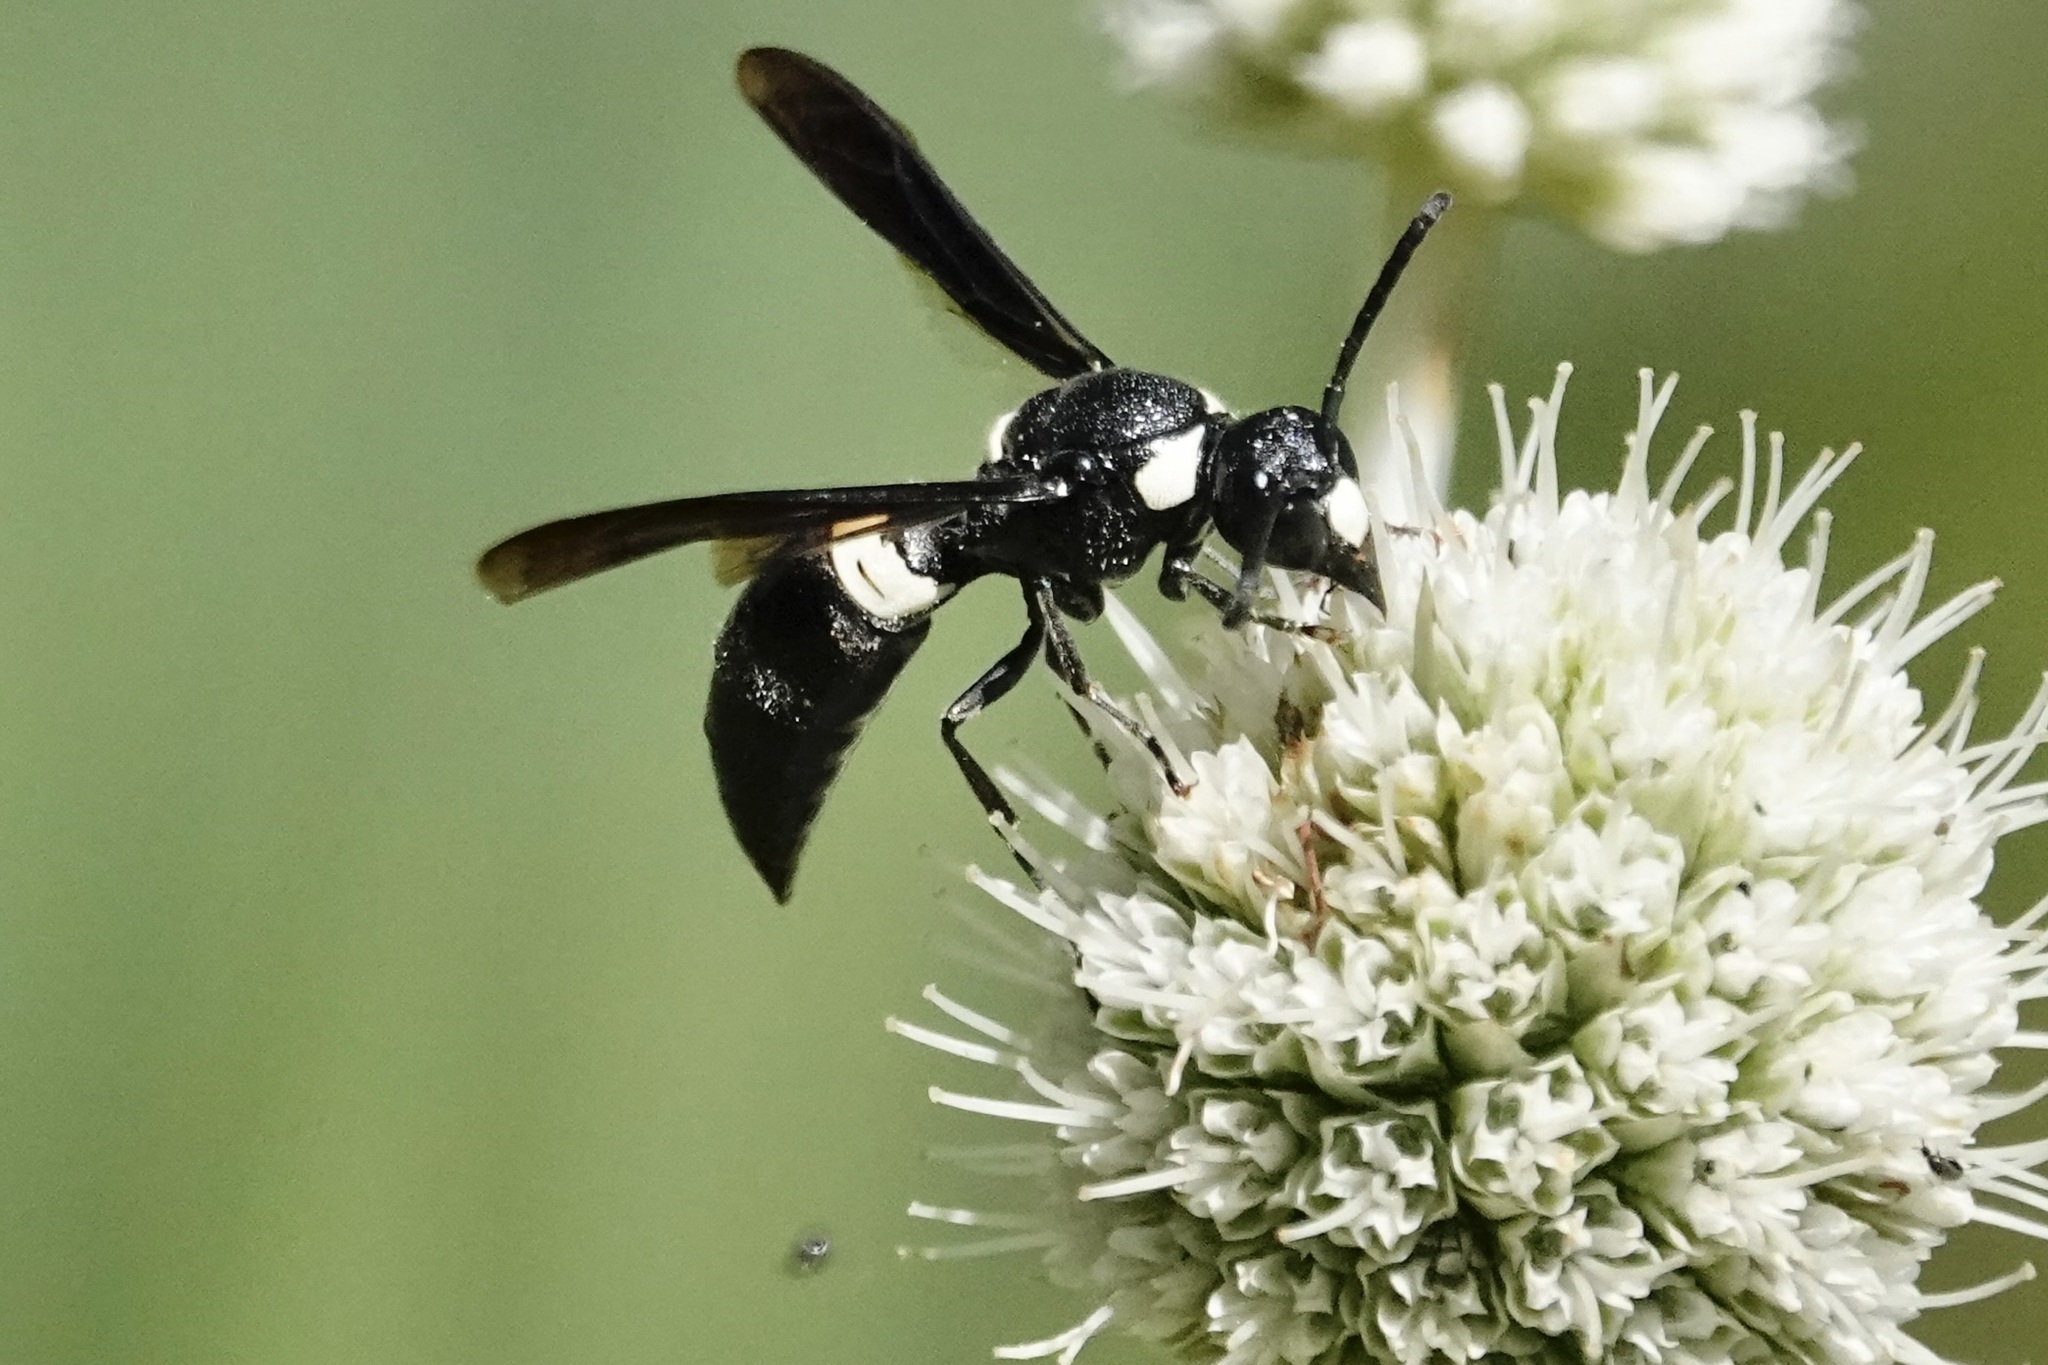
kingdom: Animalia
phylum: Arthropoda
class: Insecta
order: Hymenoptera
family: Eumenidae
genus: Monobia
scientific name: Monobia quadridens
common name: Four-toothed mason wasp
